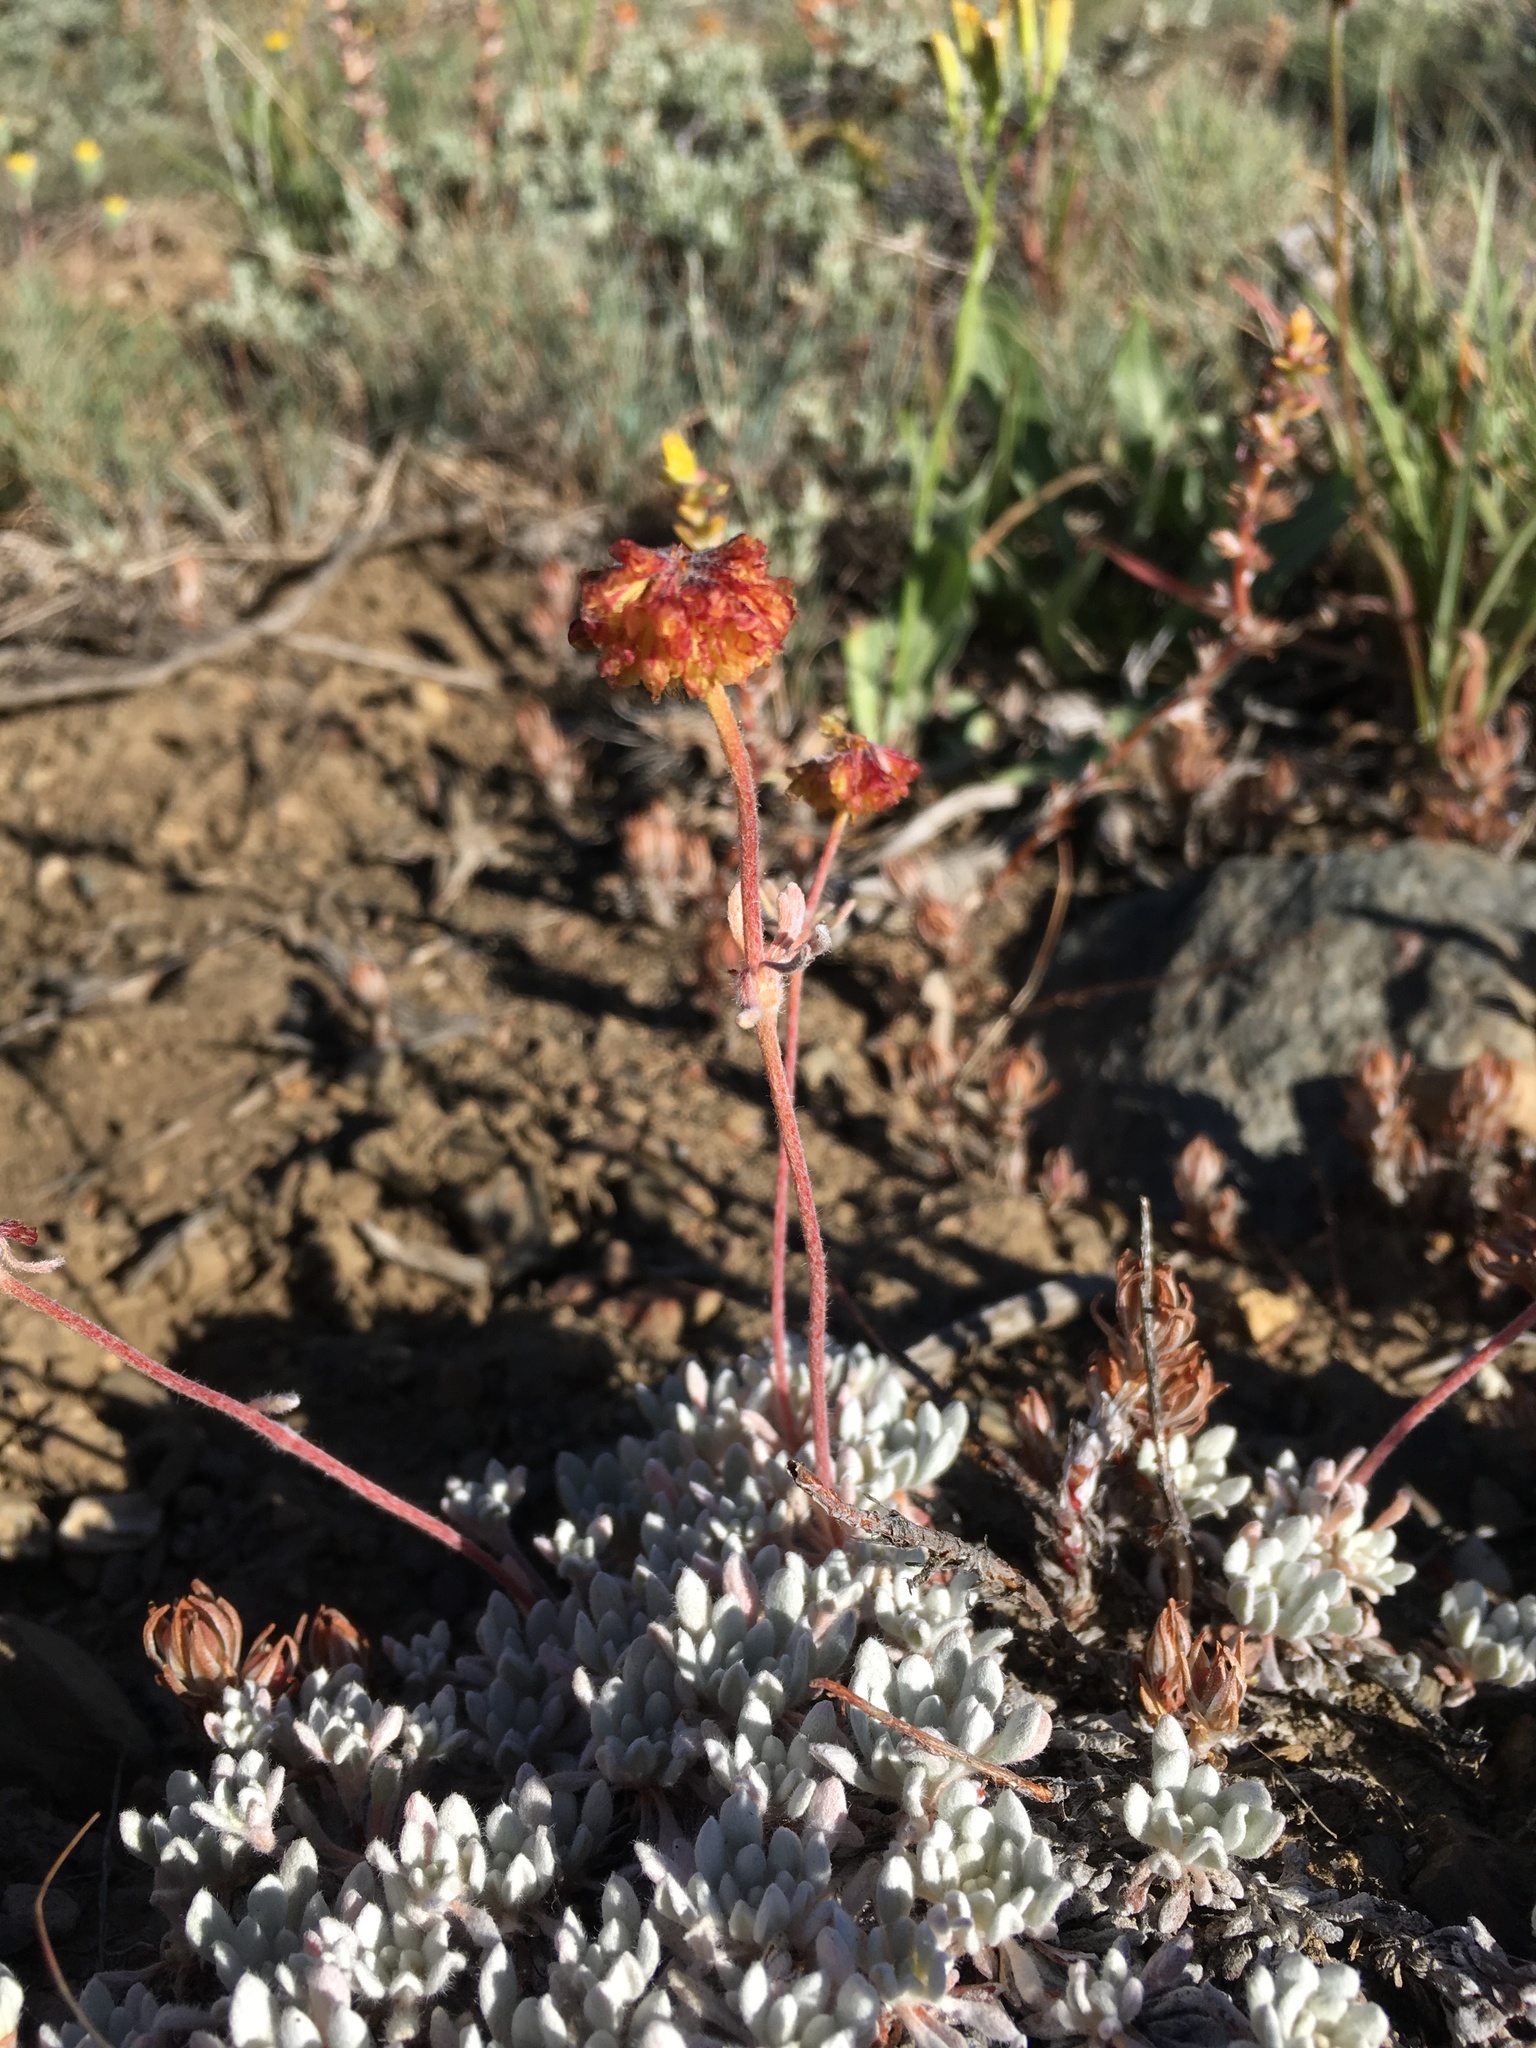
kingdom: Plantae
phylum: Tracheophyta
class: Magnoliopsida
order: Caryophyllales
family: Polygonaceae
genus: Eriogonum
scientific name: Eriogonum douglasii
